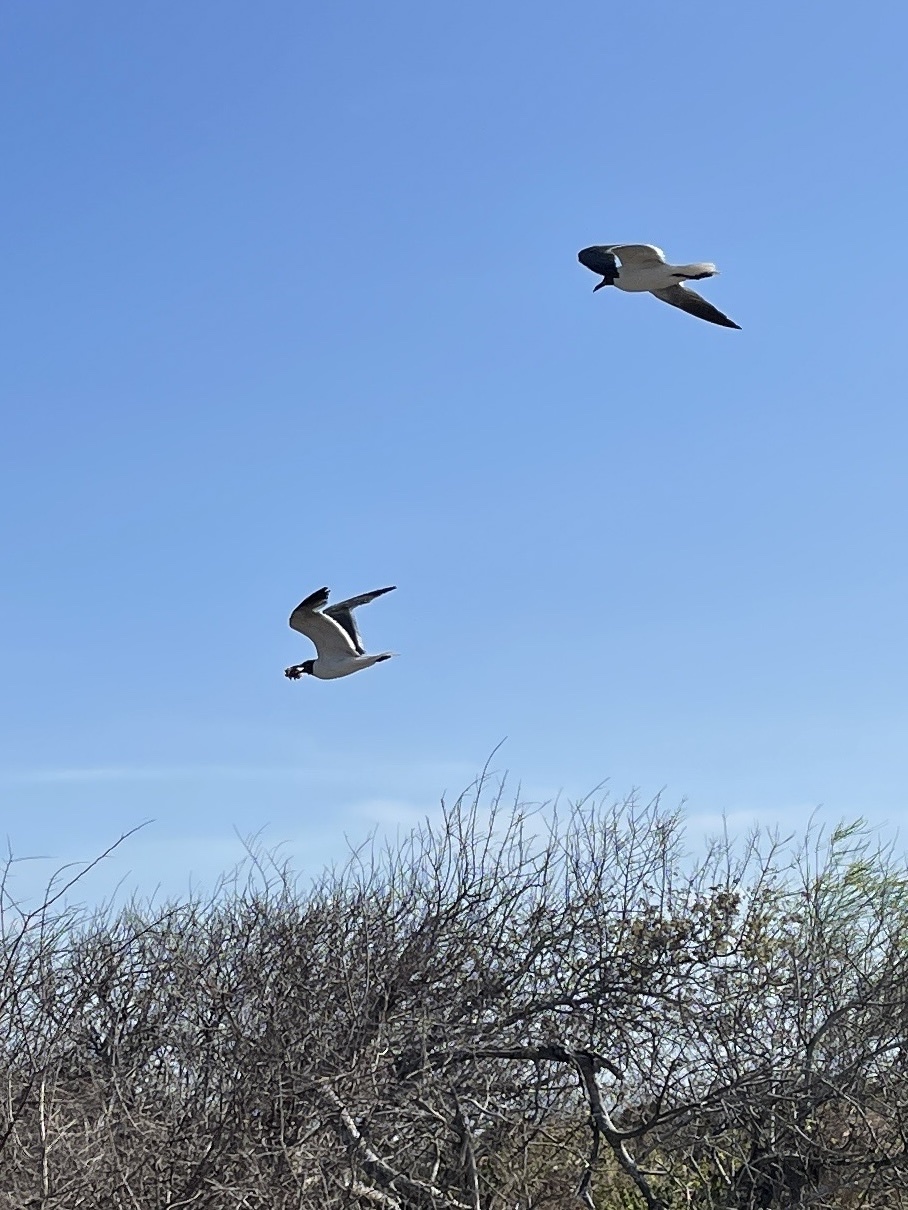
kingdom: Animalia
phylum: Chordata
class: Aves
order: Charadriiformes
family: Laridae
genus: Leucophaeus
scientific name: Leucophaeus atricilla
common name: Laughing gull
